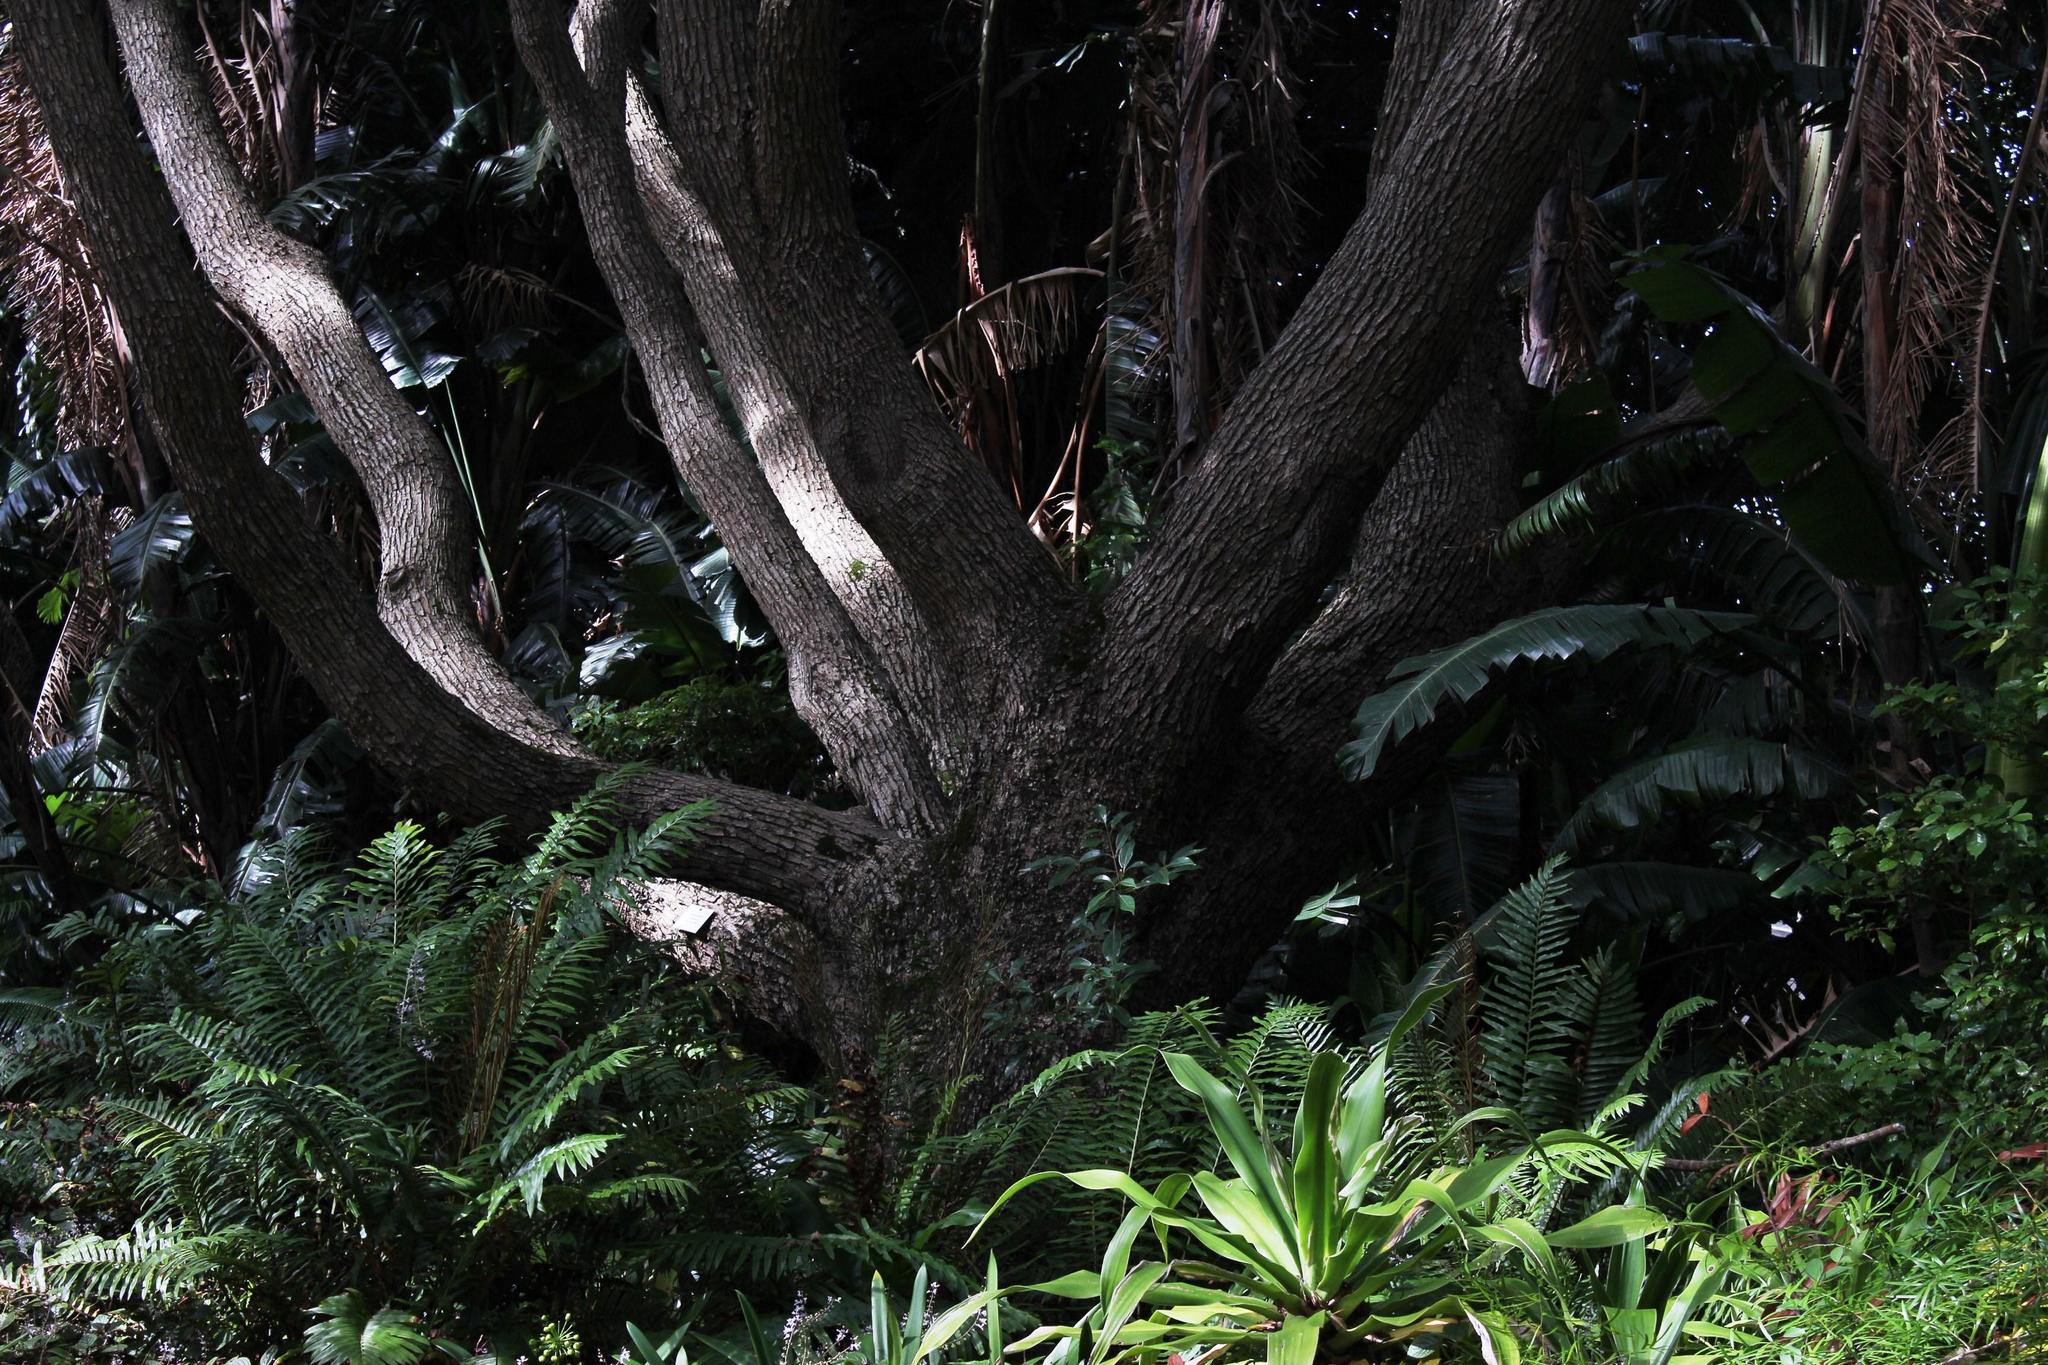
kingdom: Plantae
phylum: Tracheophyta
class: Magnoliopsida
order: Laurales
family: Lauraceae
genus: Cinnamomum
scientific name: Cinnamomum camphora
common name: Camphortree
